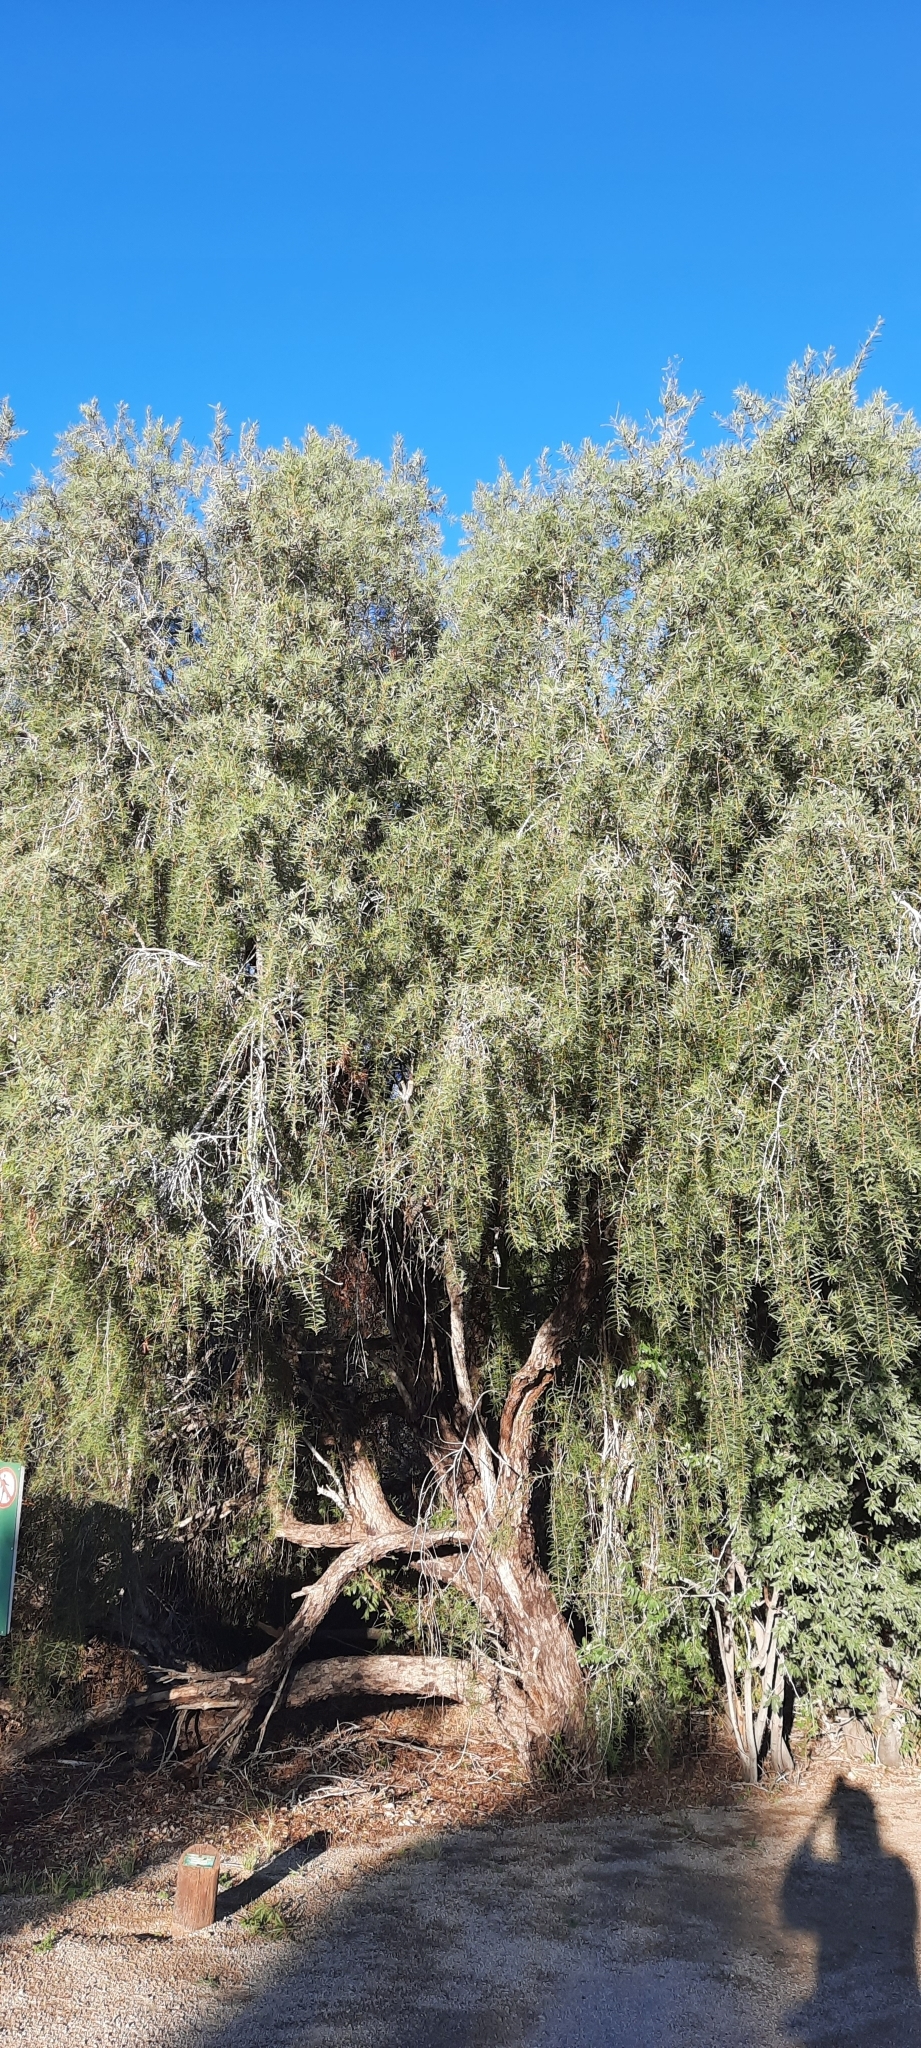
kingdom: Plantae
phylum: Tracheophyta
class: Magnoliopsida
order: Ericales
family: Ebenaceae
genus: Euclea
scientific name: Euclea pseudebenus
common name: Black ebony
